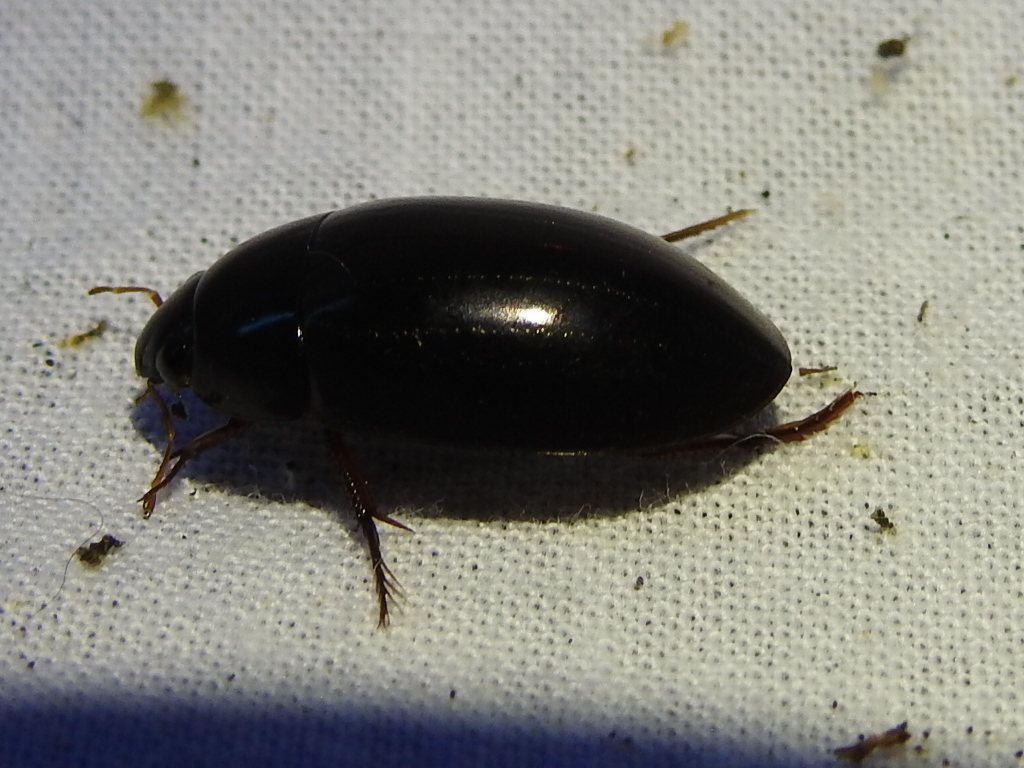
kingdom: Animalia
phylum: Arthropoda
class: Insecta
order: Coleoptera
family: Hydrophilidae
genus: Hydrochara
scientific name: Hydrochara
